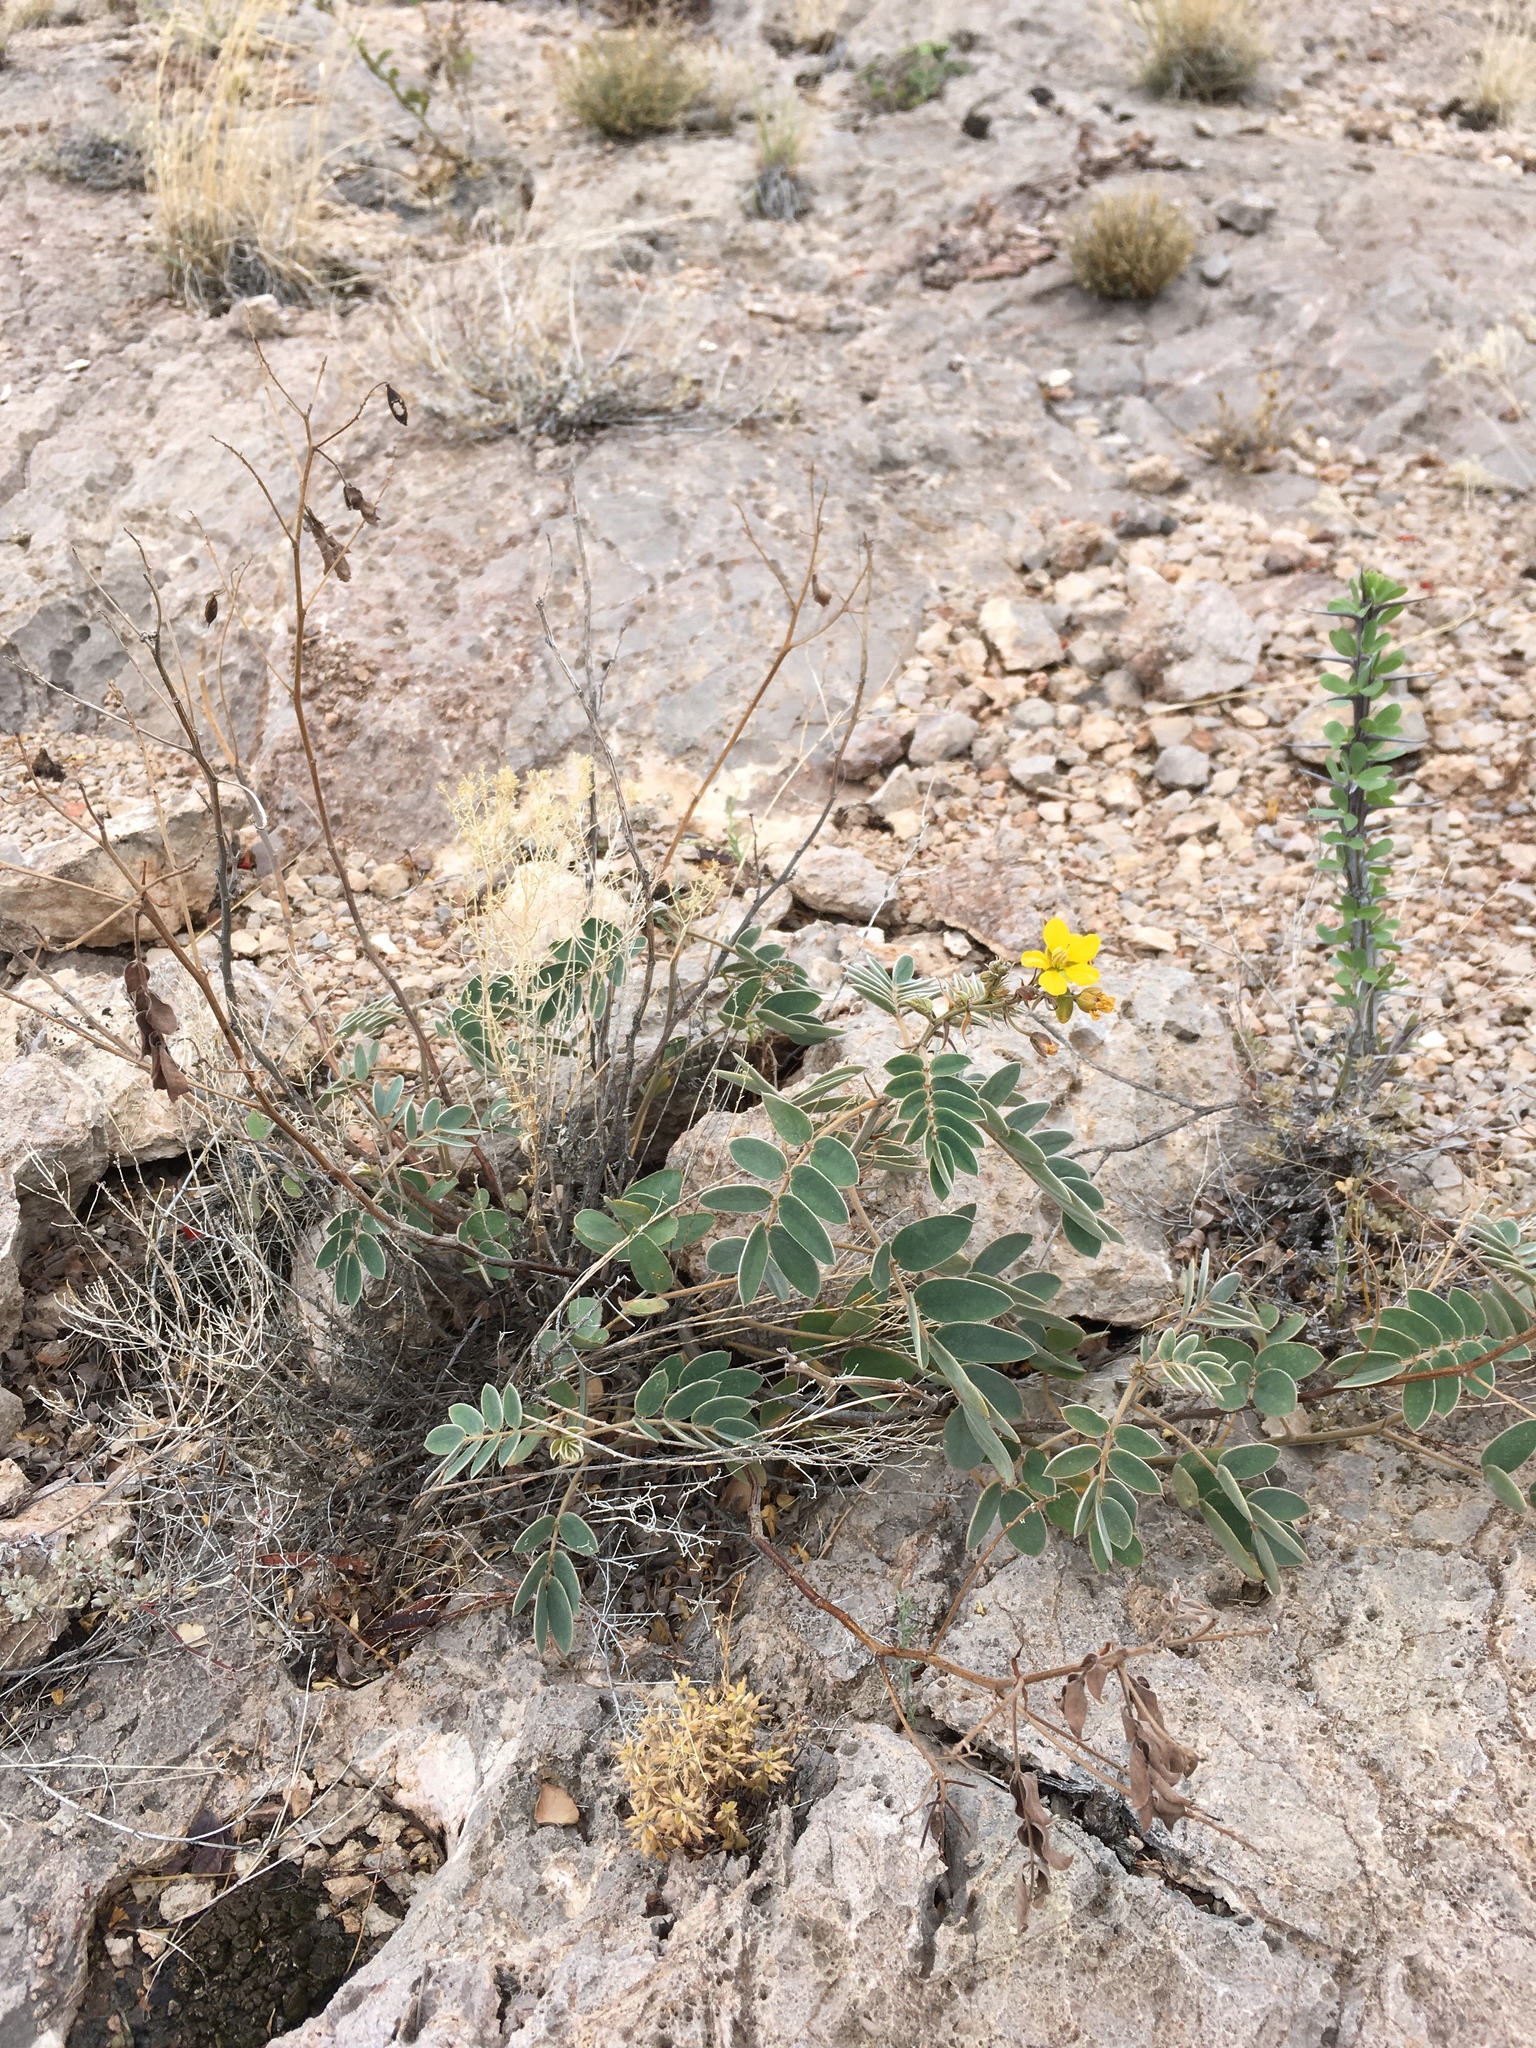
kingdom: Plantae
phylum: Tracheophyta
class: Magnoliopsida
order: Fabales
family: Fabaceae
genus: Senna
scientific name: Senna lindheimeriana
